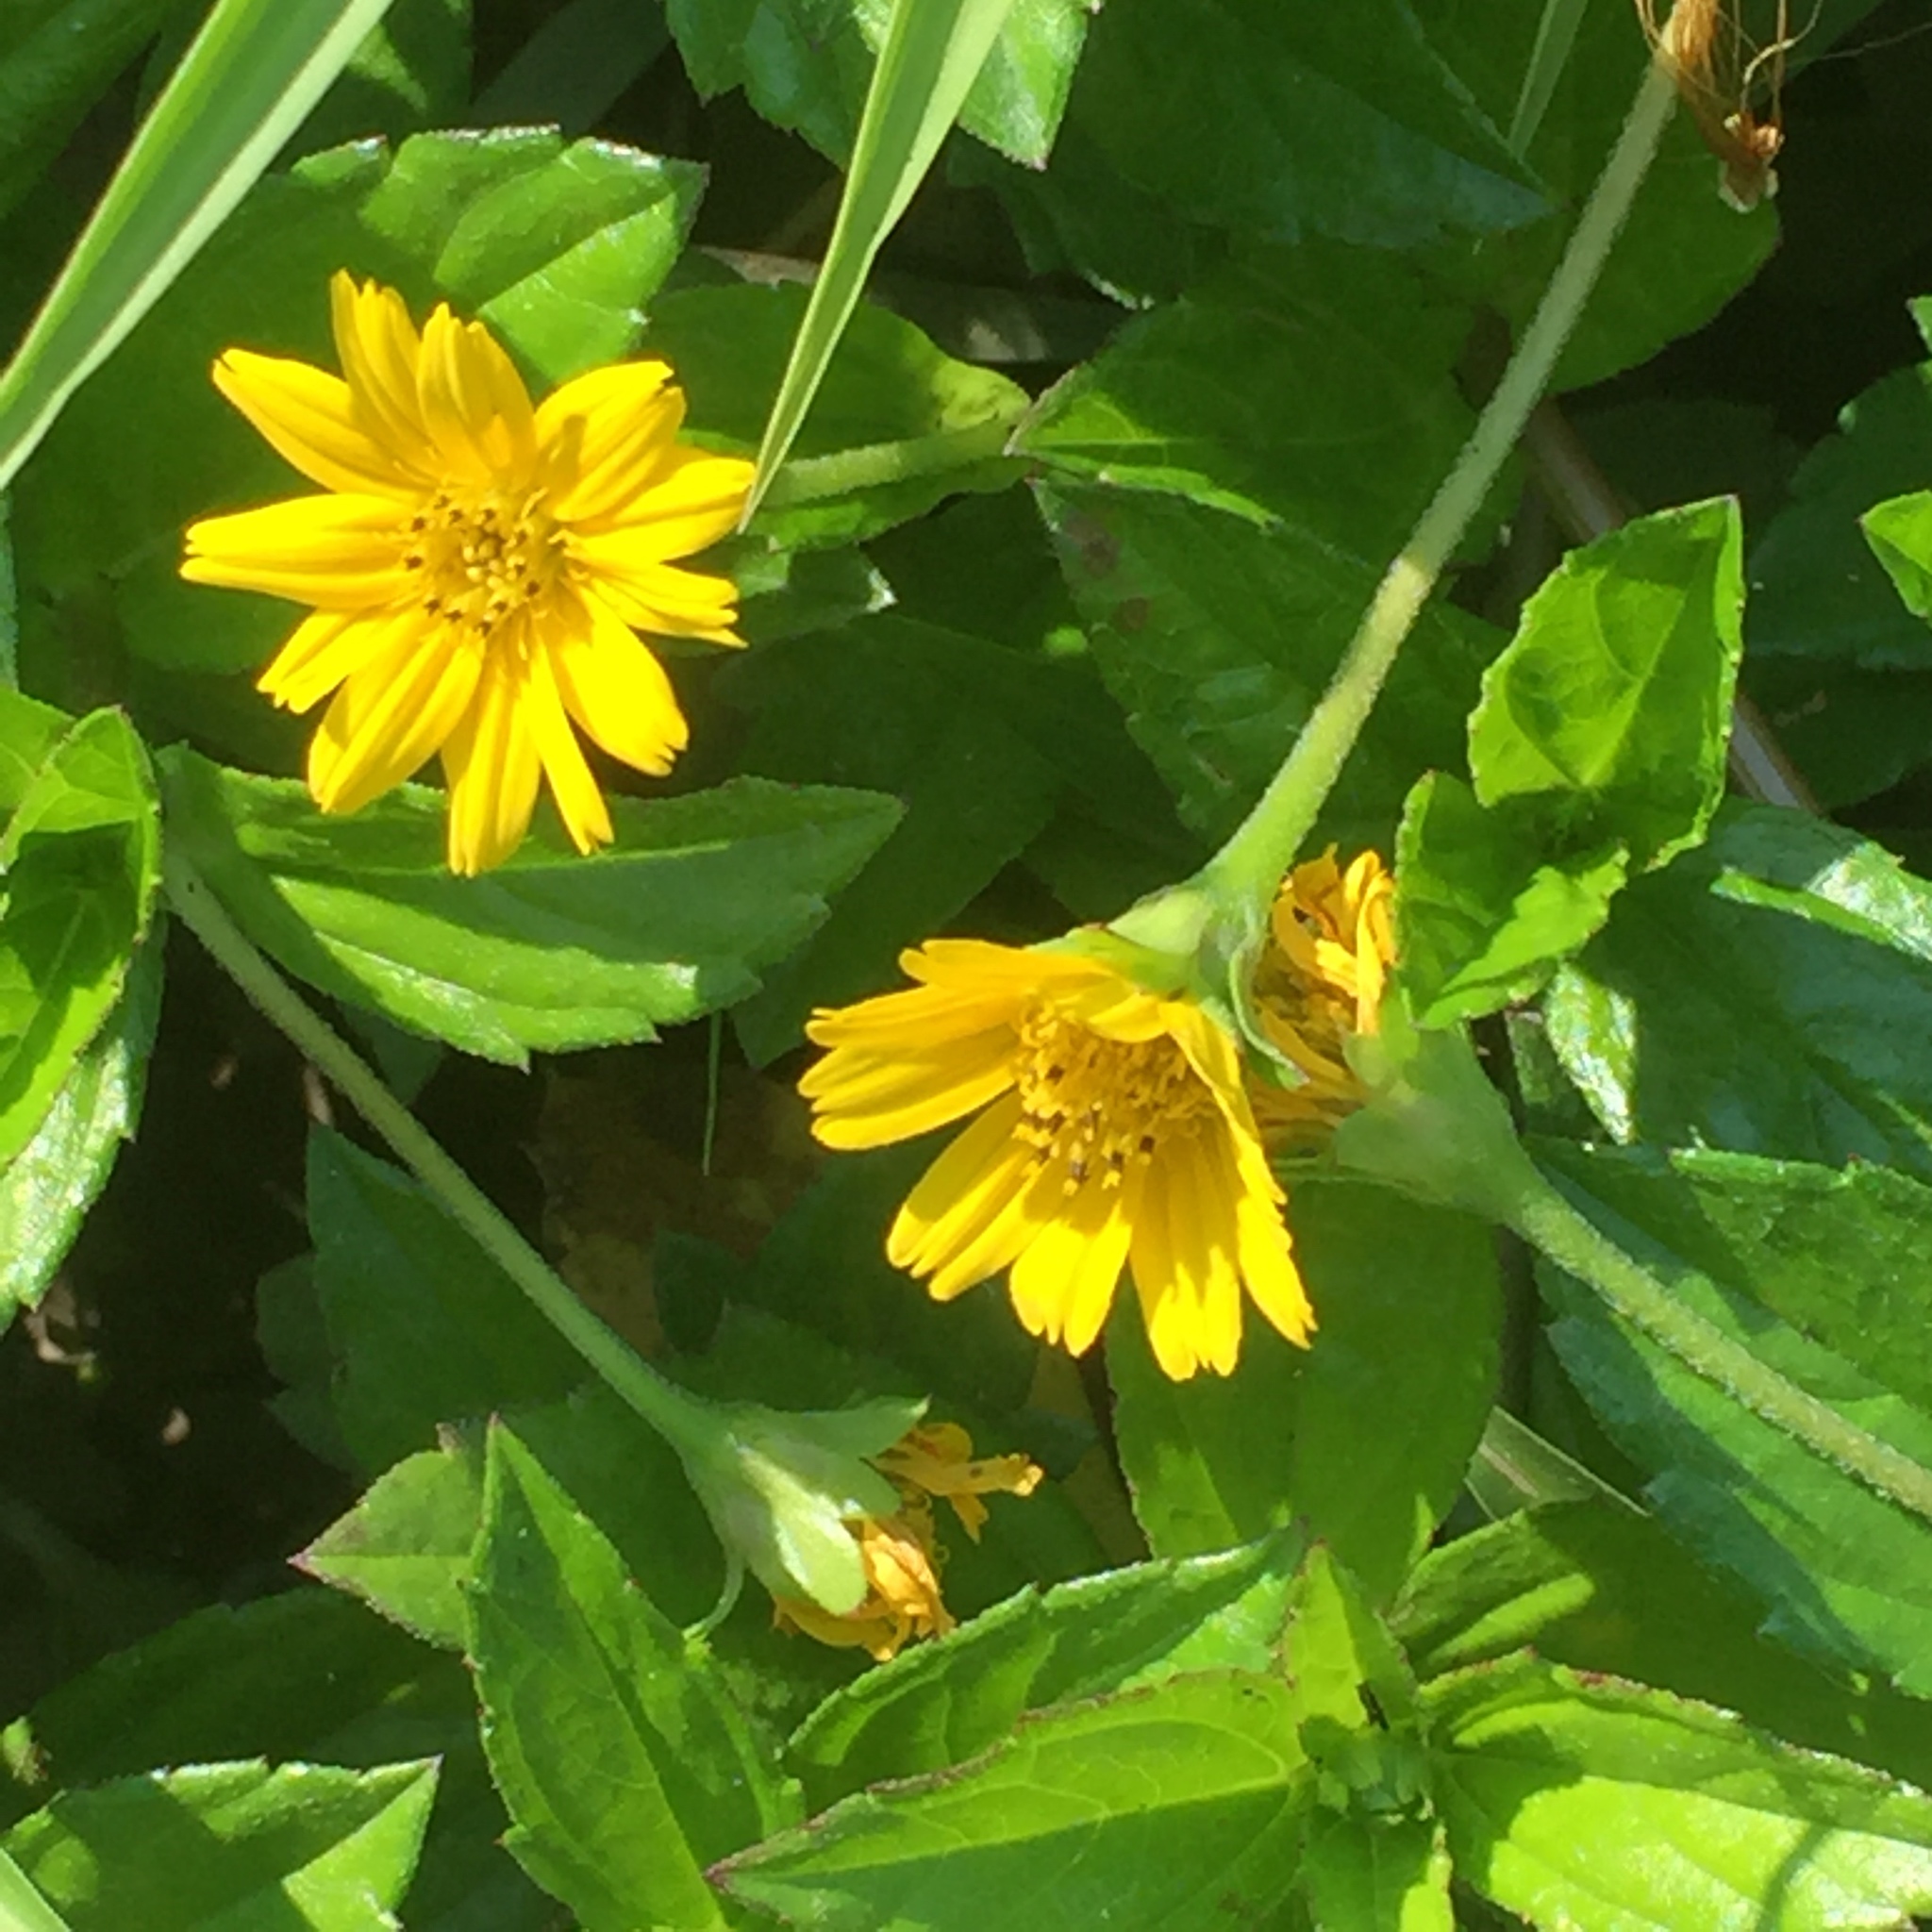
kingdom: Plantae
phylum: Tracheophyta
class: Magnoliopsida
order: Asterales
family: Asteraceae
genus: Sphagneticola
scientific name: Sphagneticola trilobata
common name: Bay biscayne creeping-oxeye
